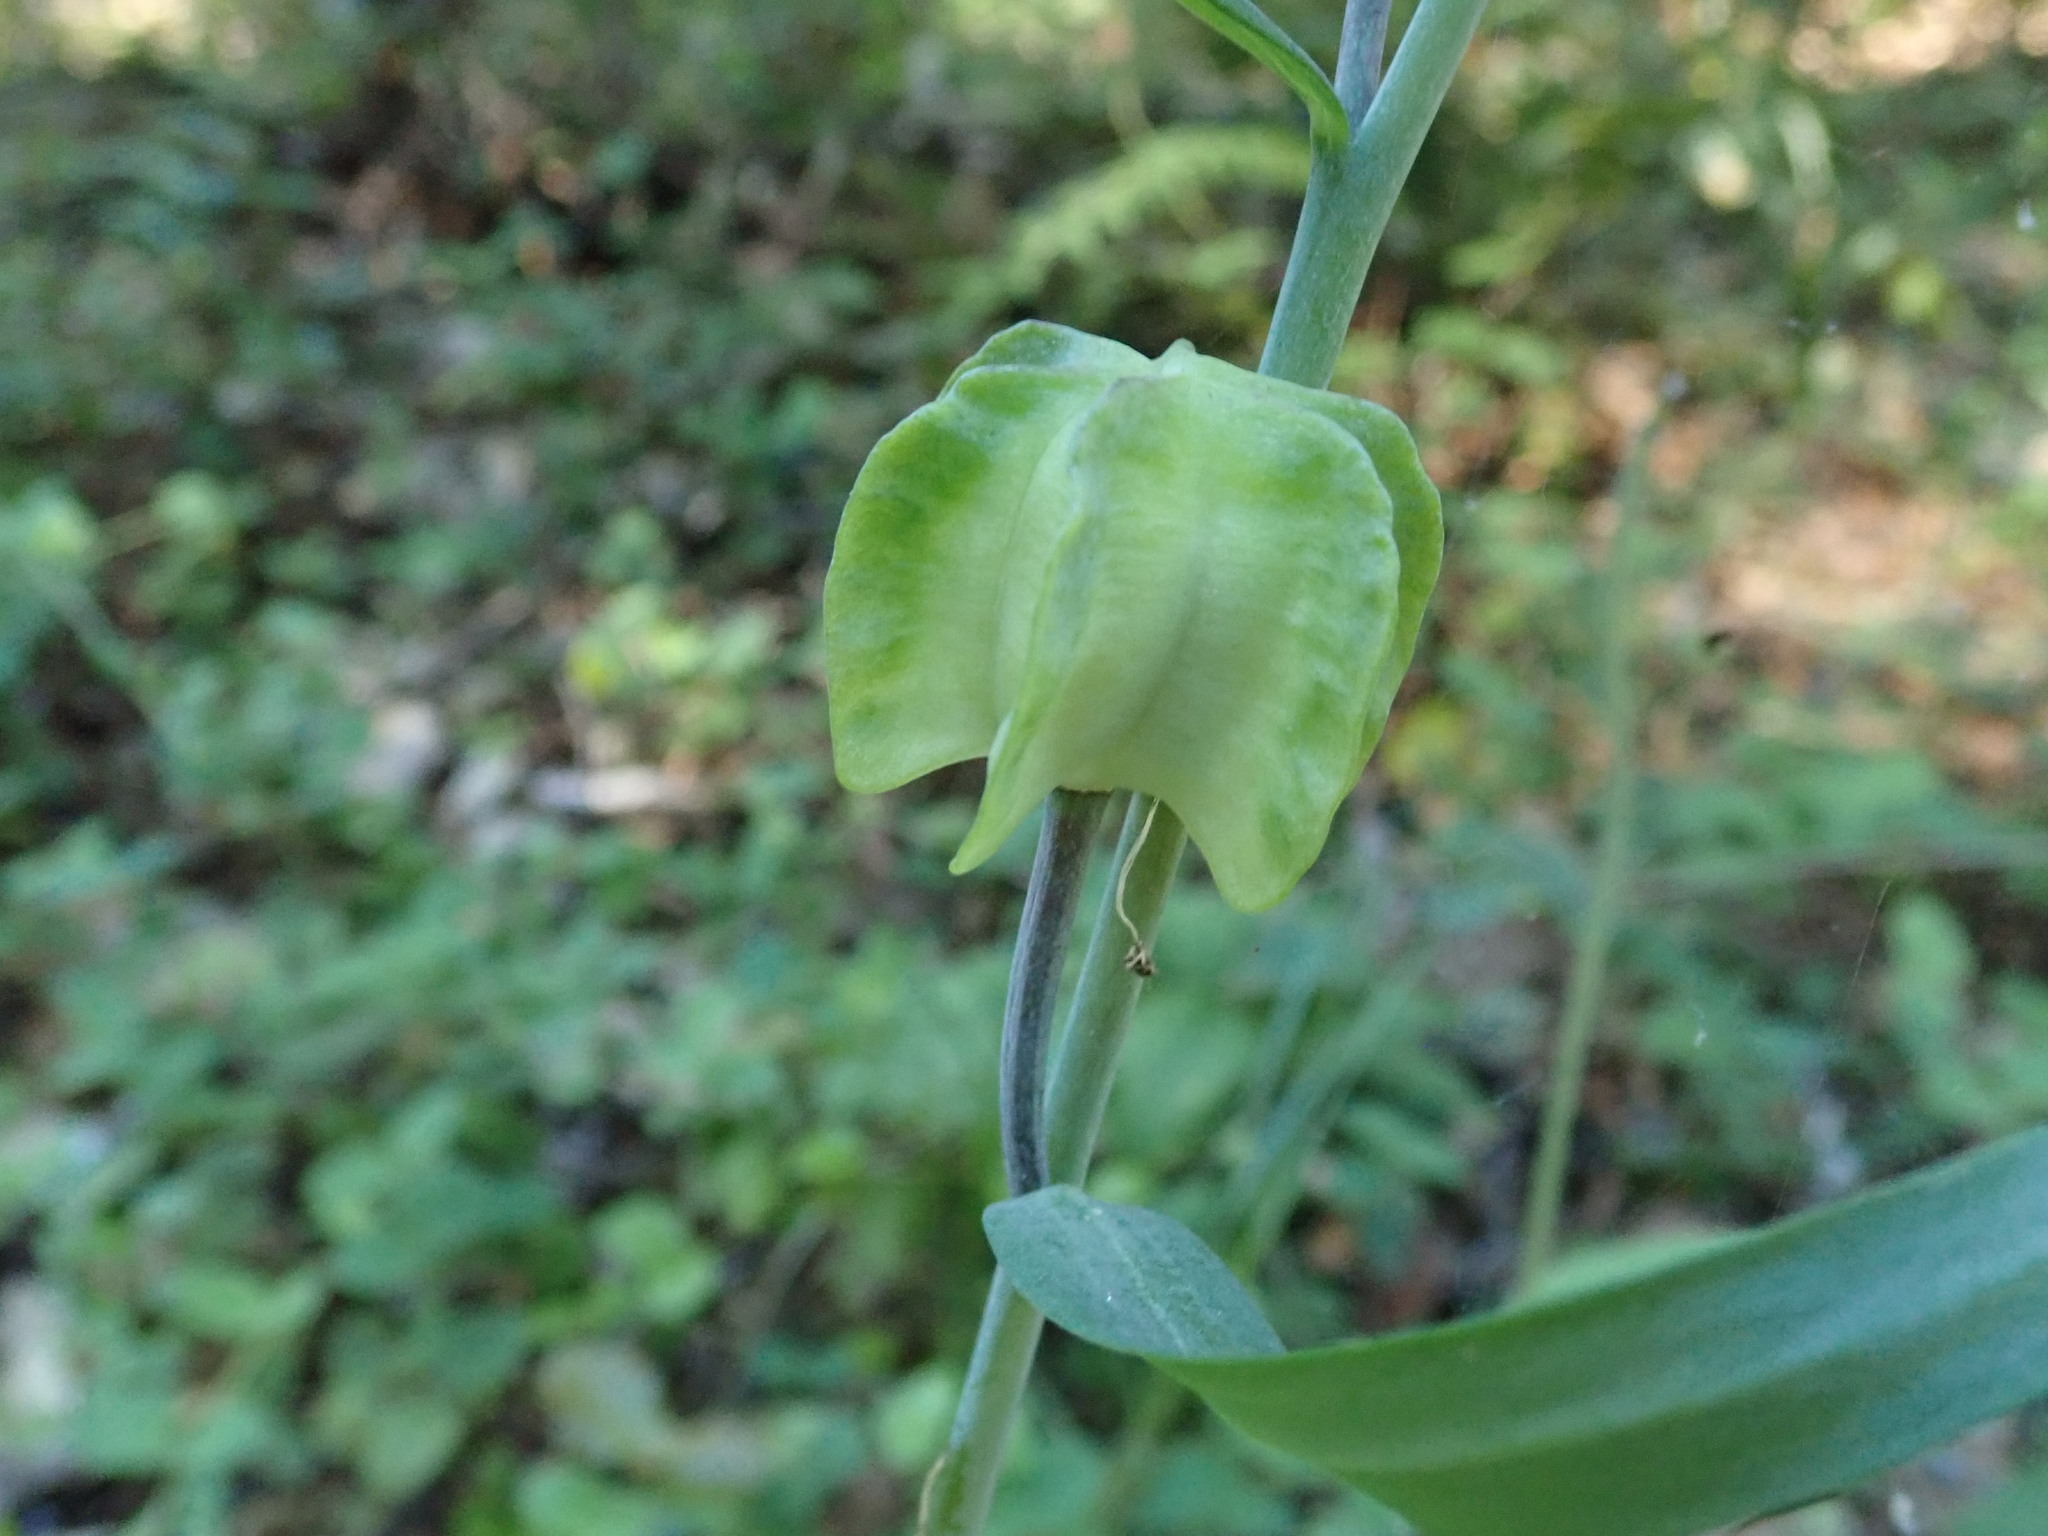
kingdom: Plantae
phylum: Tracheophyta
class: Liliopsida
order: Liliales
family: Liliaceae
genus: Fritillaria
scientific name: Fritillaria affinis
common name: Ojai fritillary
